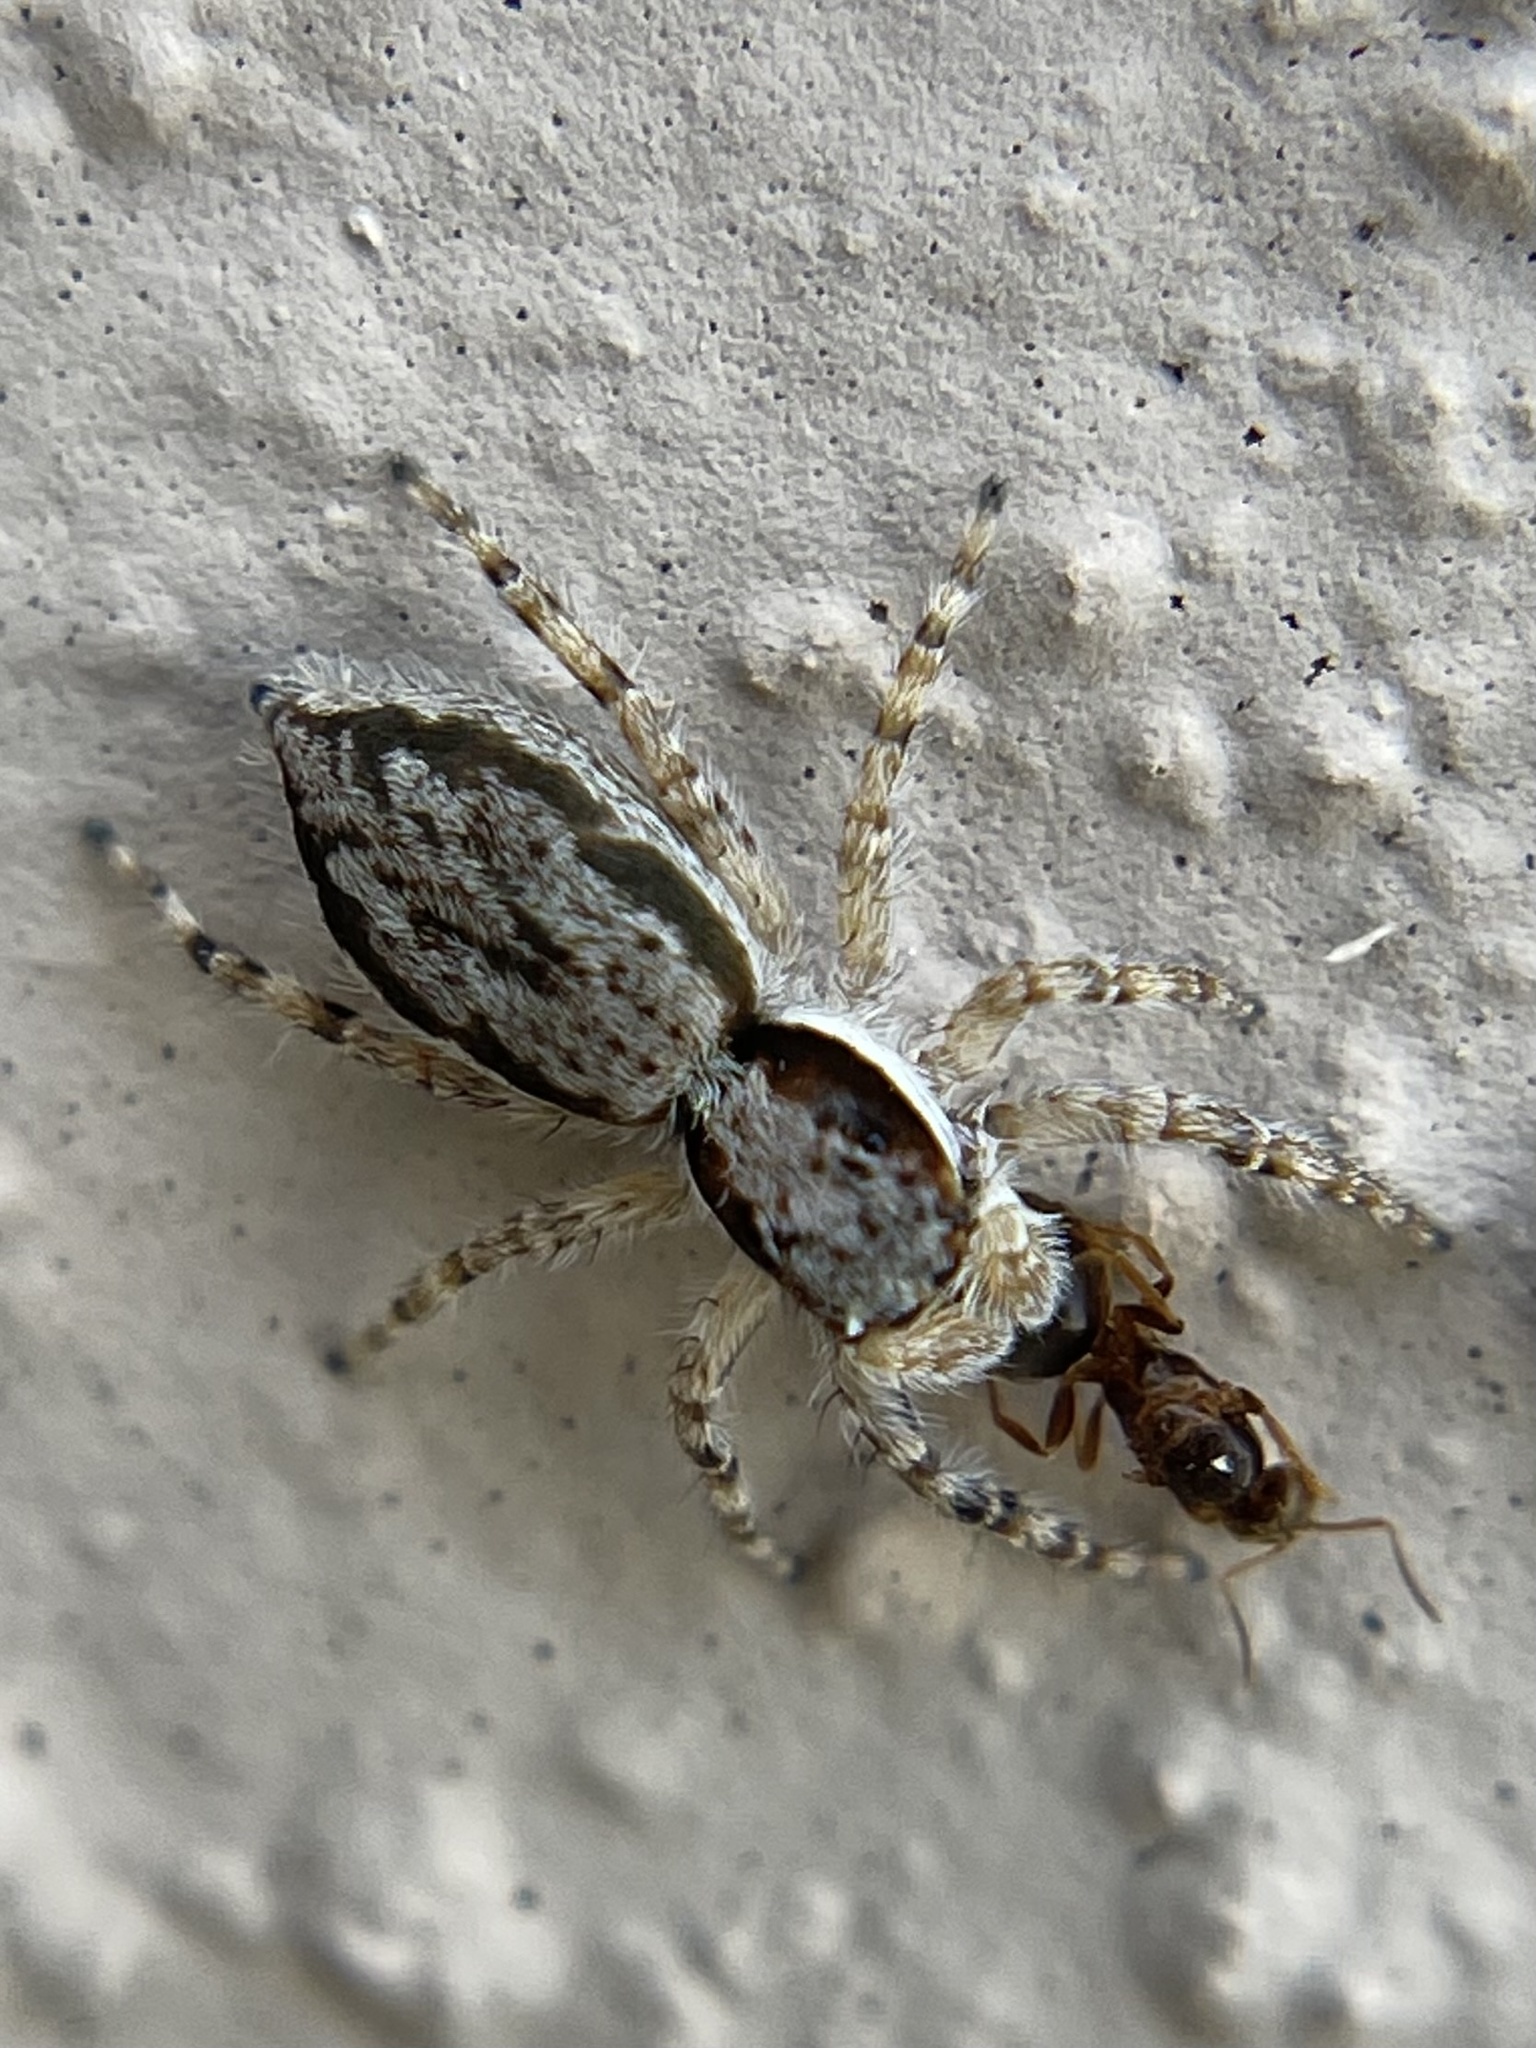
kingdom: Animalia
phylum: Arthropoda
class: Arachnida
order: Araneae
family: Salticidae
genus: Menemerus
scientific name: Menemerus bivittatus
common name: Gray wall jumper
